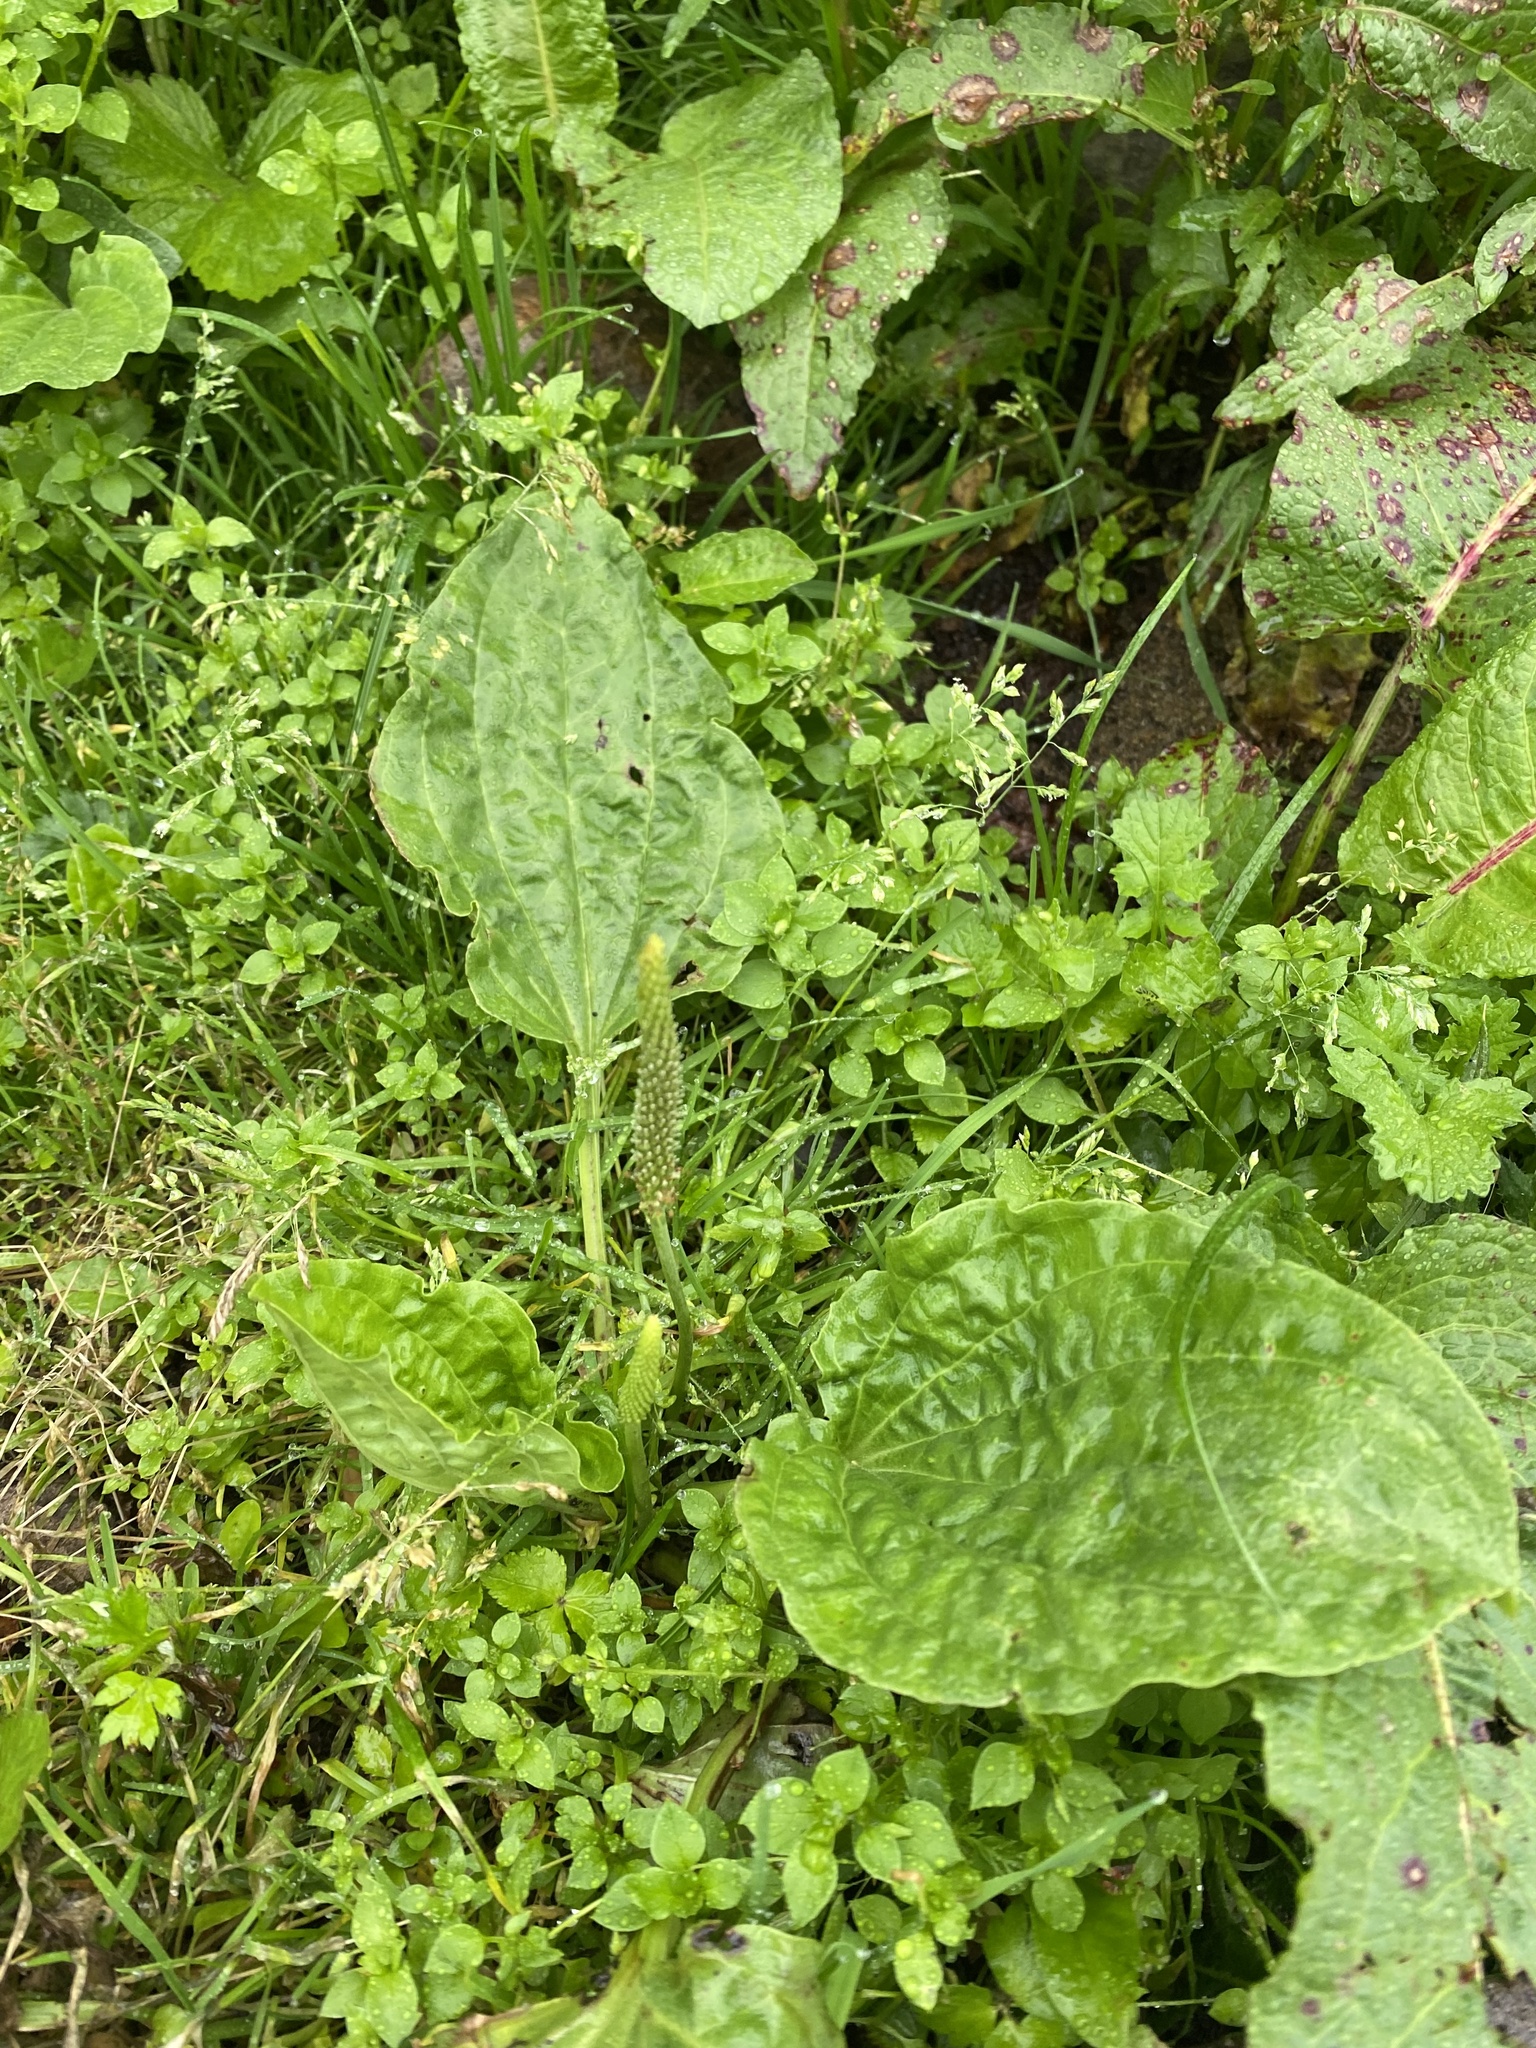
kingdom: Plantae
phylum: Tracheophyta
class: Magnoliopsida
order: Lamiales
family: Plantaginaceae
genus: Plantago
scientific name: Plantago major
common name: Common plantain
